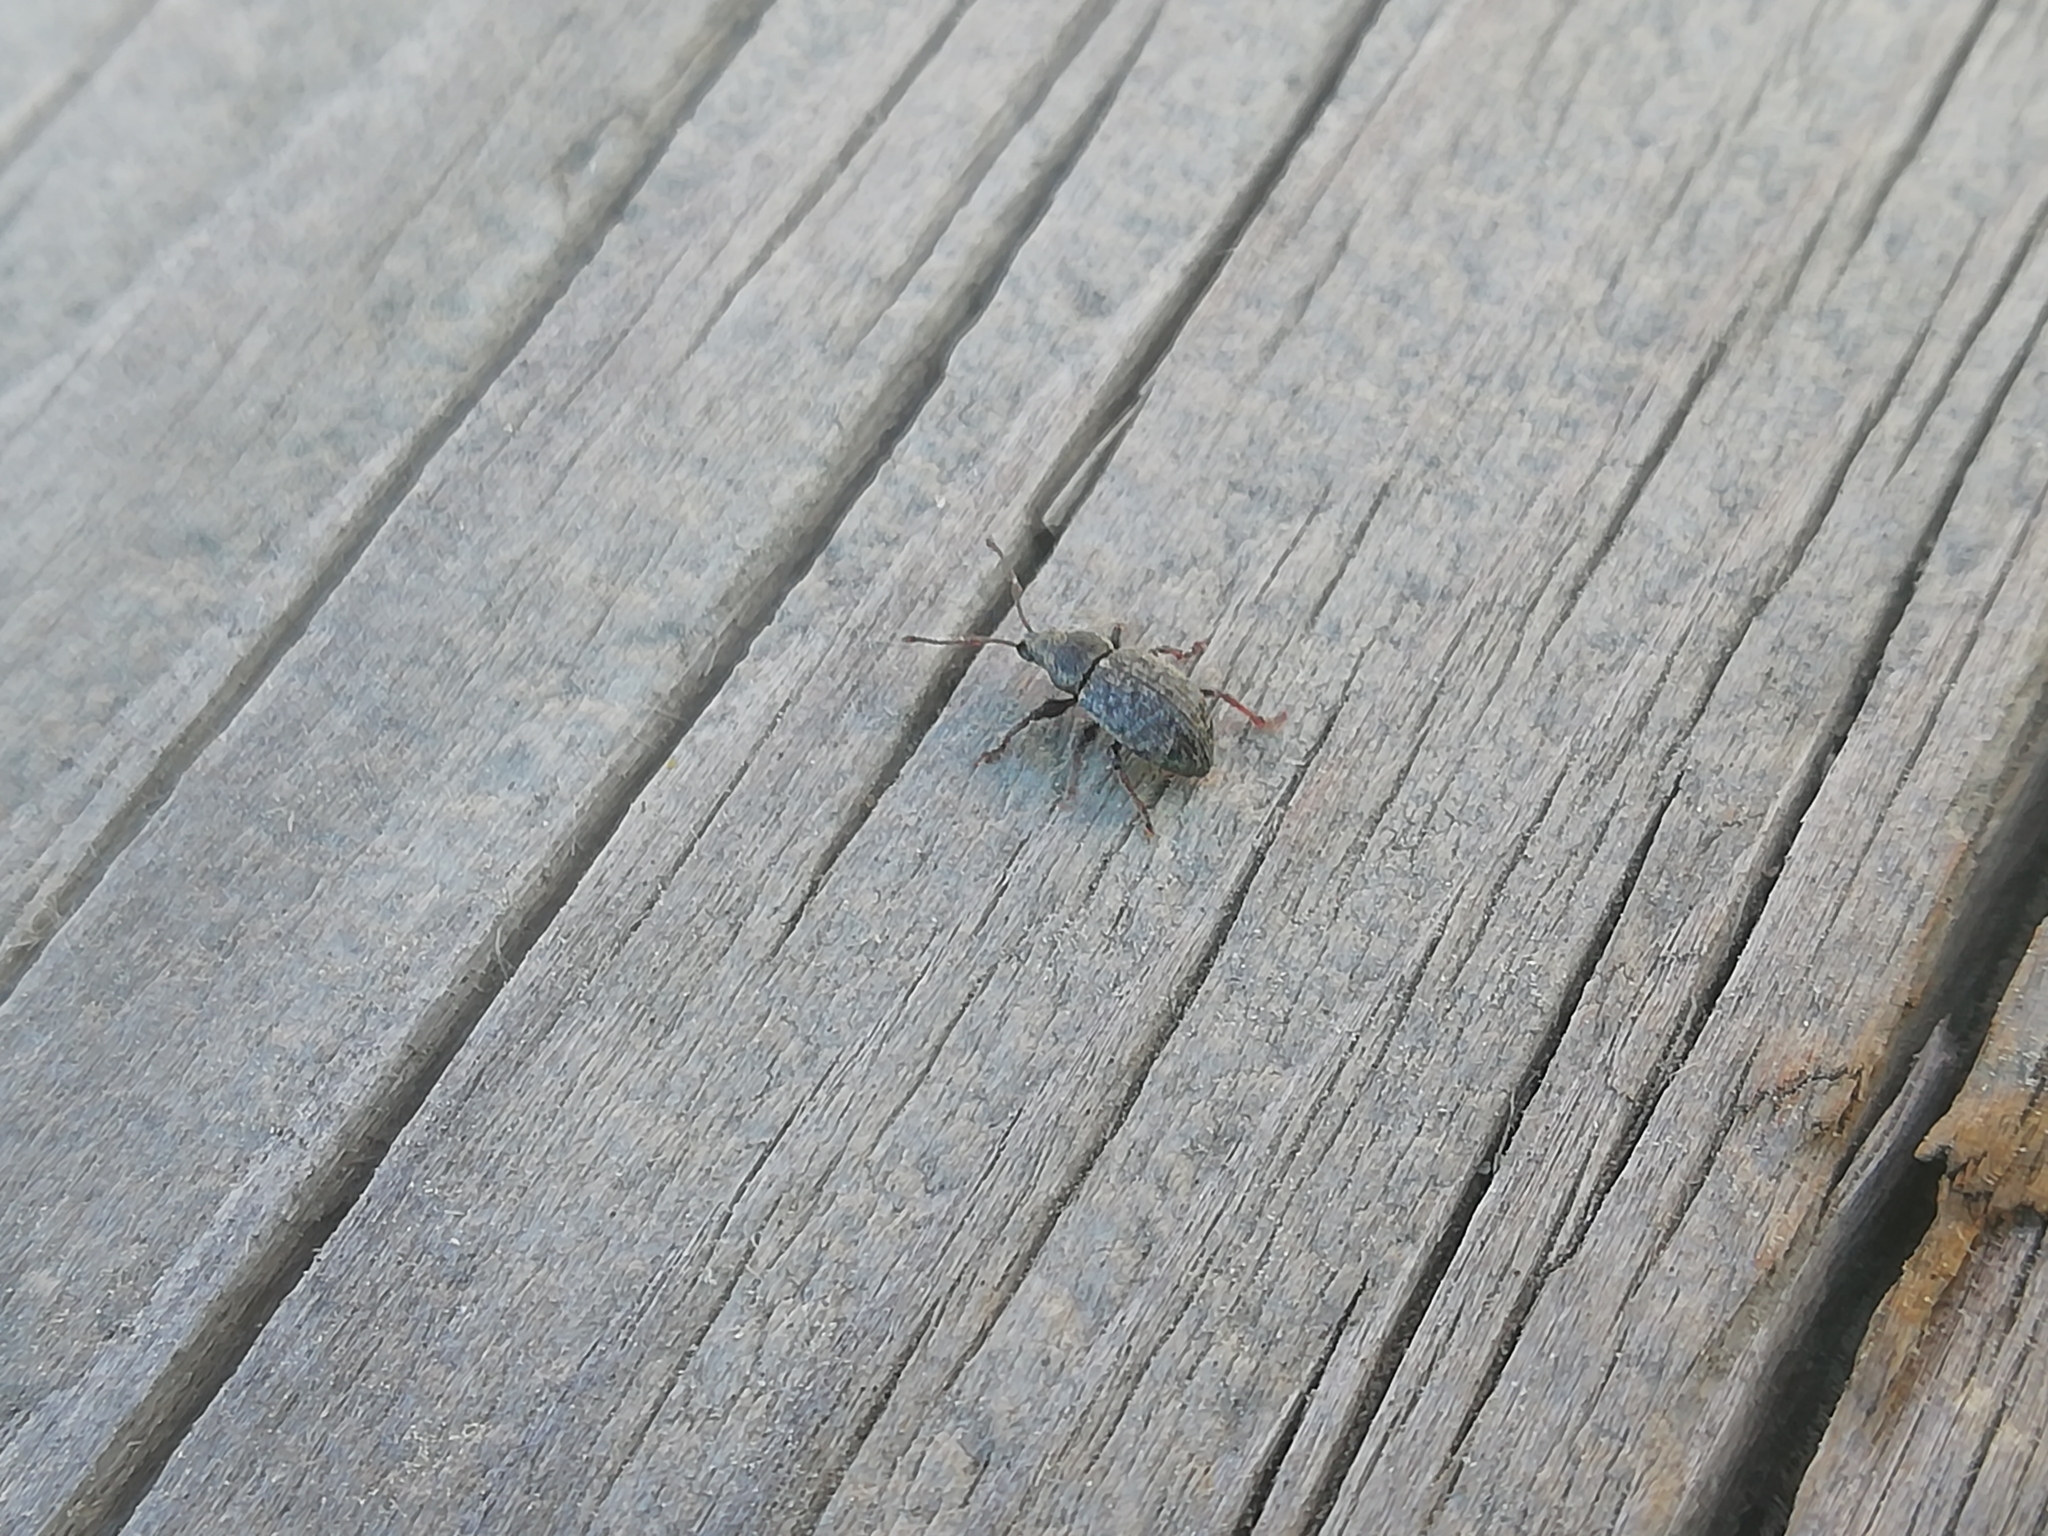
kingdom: Animalia
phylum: Arthropoda
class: Insecta
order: Coleoptera
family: Curculionidae
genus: Phyllobius
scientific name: Phyllobius brevis
